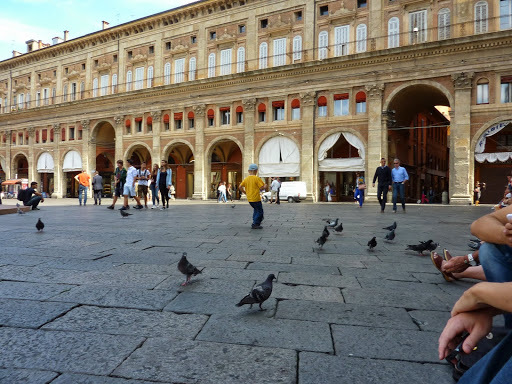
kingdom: Animalia
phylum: Chordata
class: Aves
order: Columbiformes
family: Columbidae
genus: Columba
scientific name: Columba livia
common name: Rock pigeon
